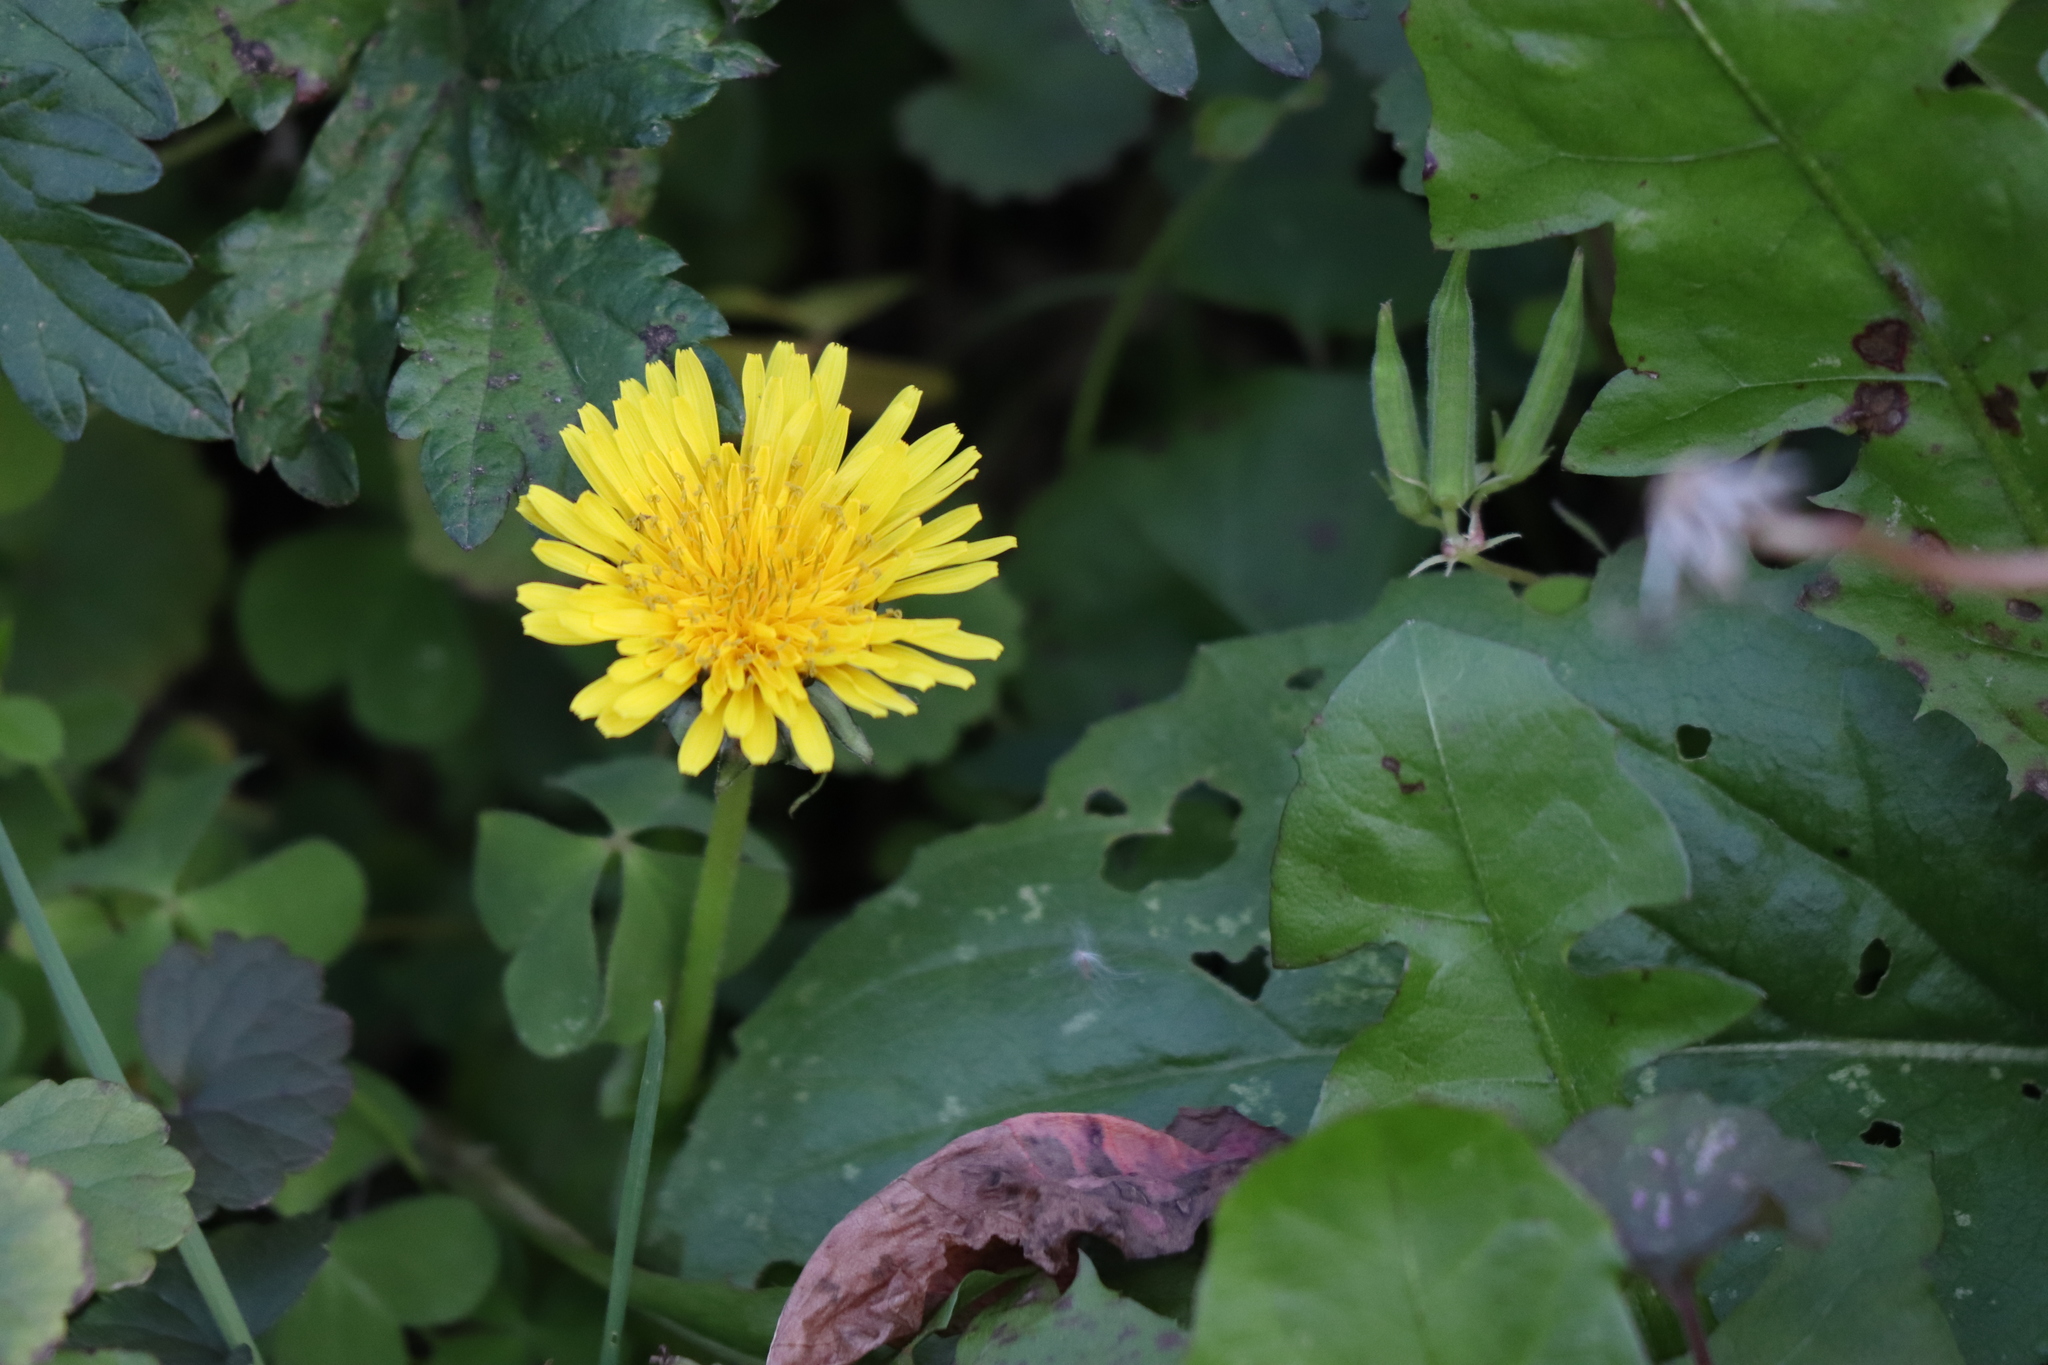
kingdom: Plantae
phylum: Tracheophyta
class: Magnoliopsida
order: Asterales
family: Asteraceae
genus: Taraxacum
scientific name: Taraxacum officinale
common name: Common dandelion
